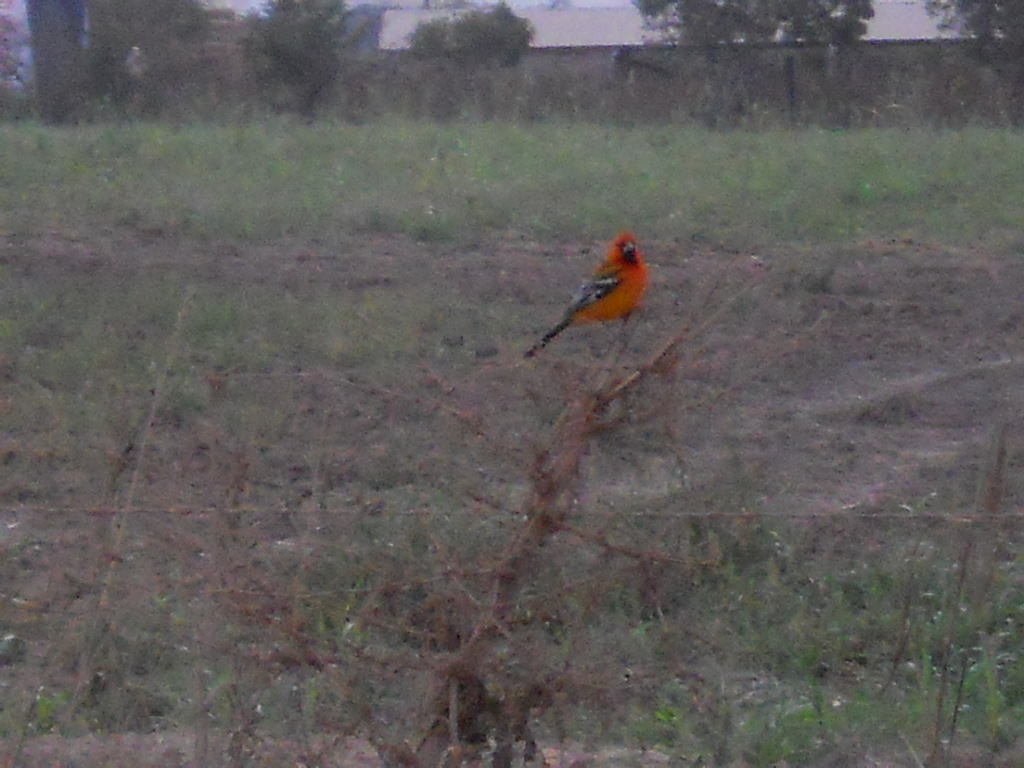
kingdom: Animalia
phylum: Chordata
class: Aves
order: Passeriformes
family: Icteridae
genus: Icterus
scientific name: Icterus pustulatus
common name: Streak-backed oriole
